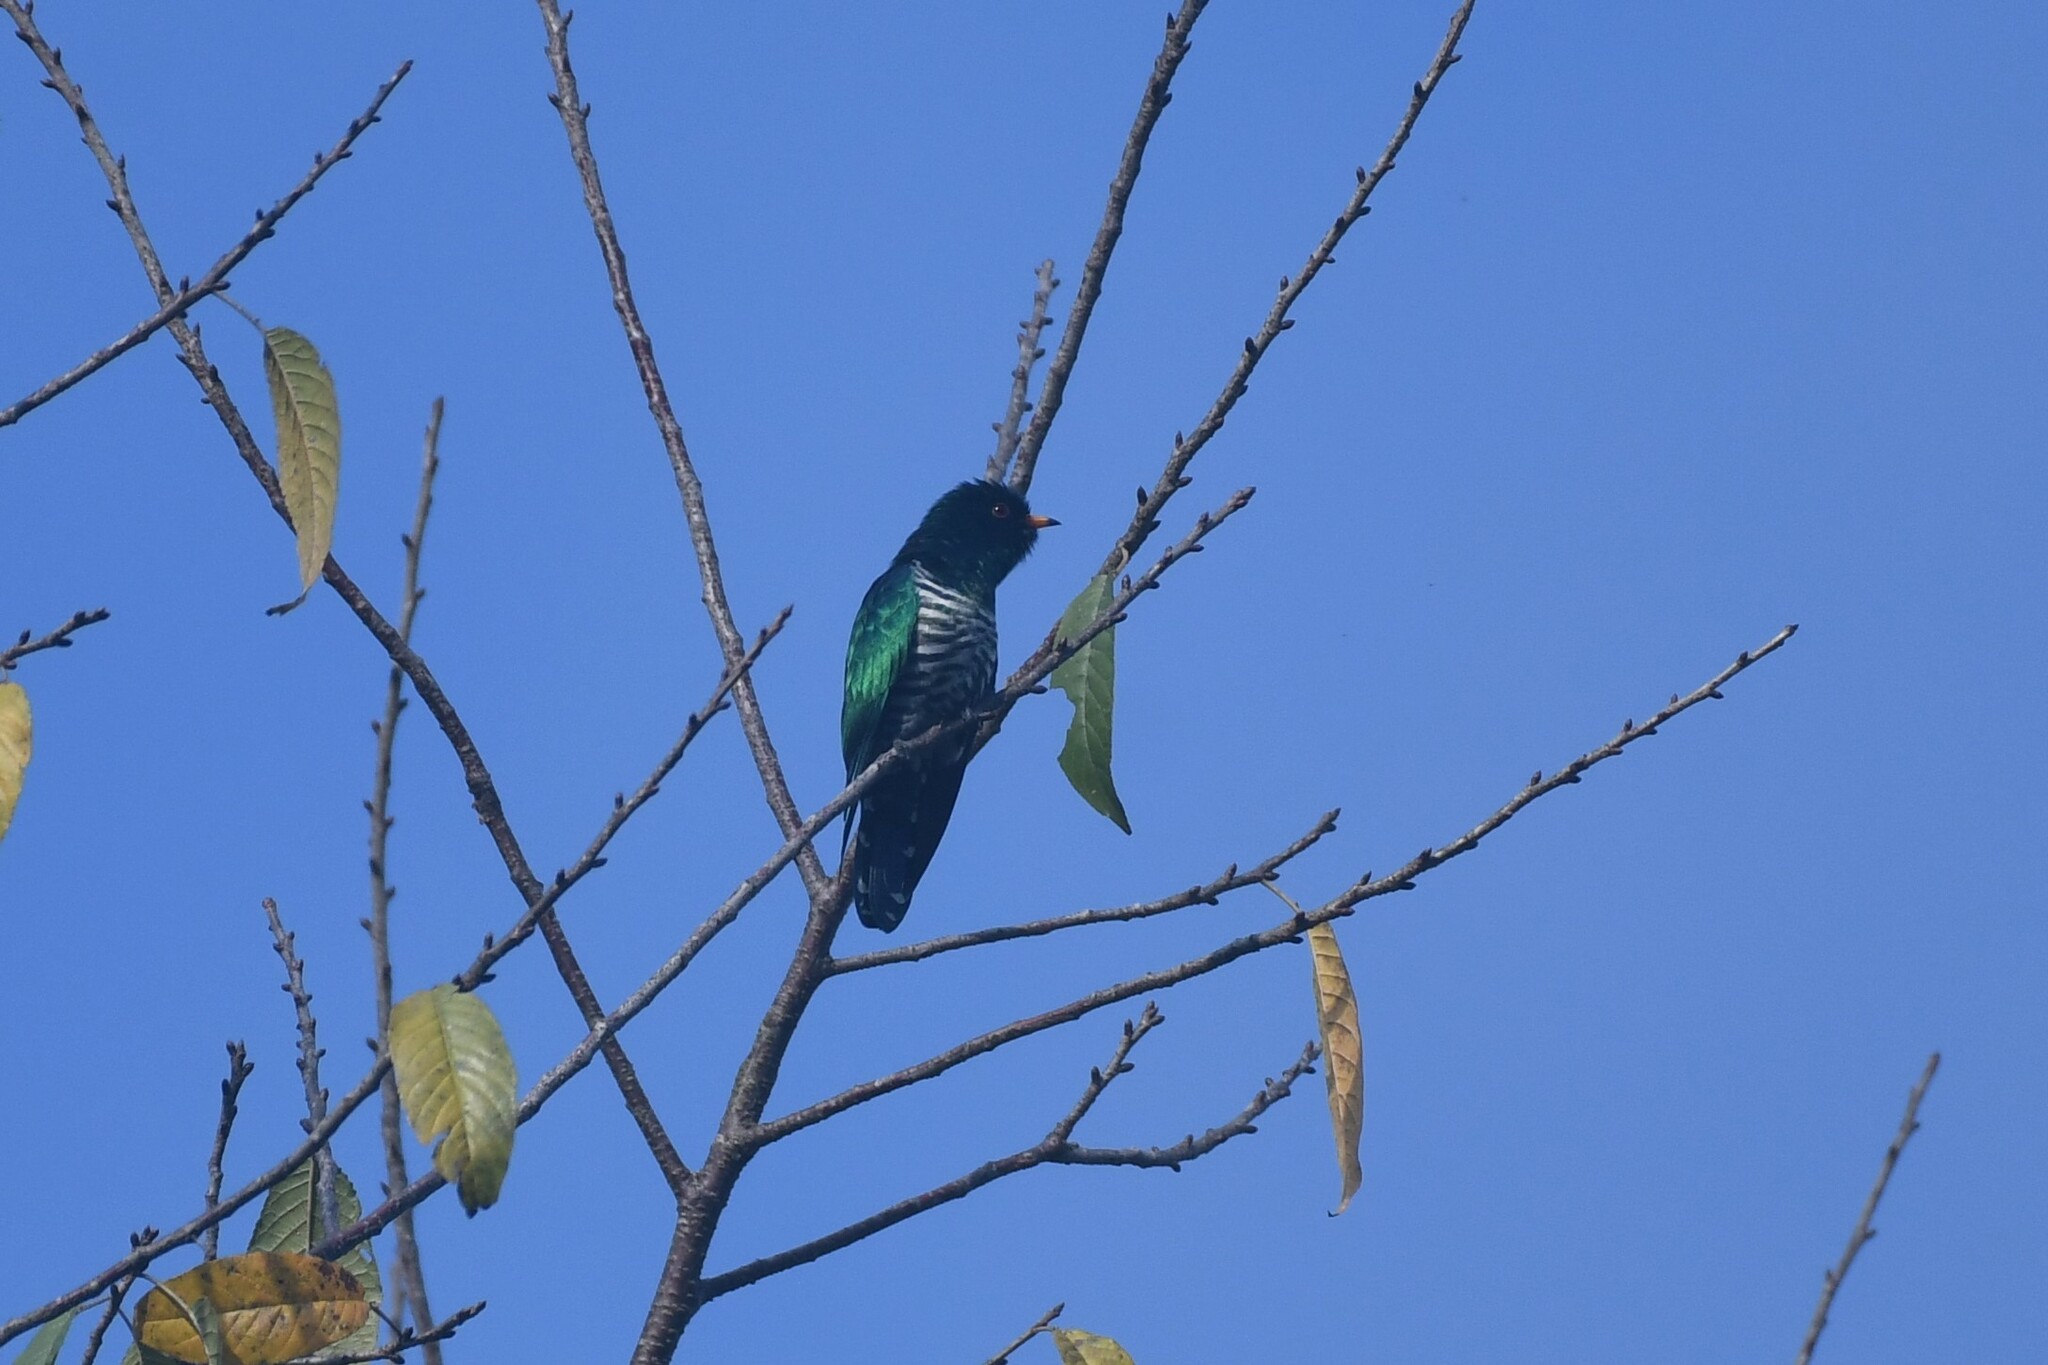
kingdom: Animalia
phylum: Chordata
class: Aves
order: Cuculiformes
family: Cuculidae
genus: Chrysococcyx
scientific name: Chrysococcyx maculatus
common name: Asian emerald cuckoo
